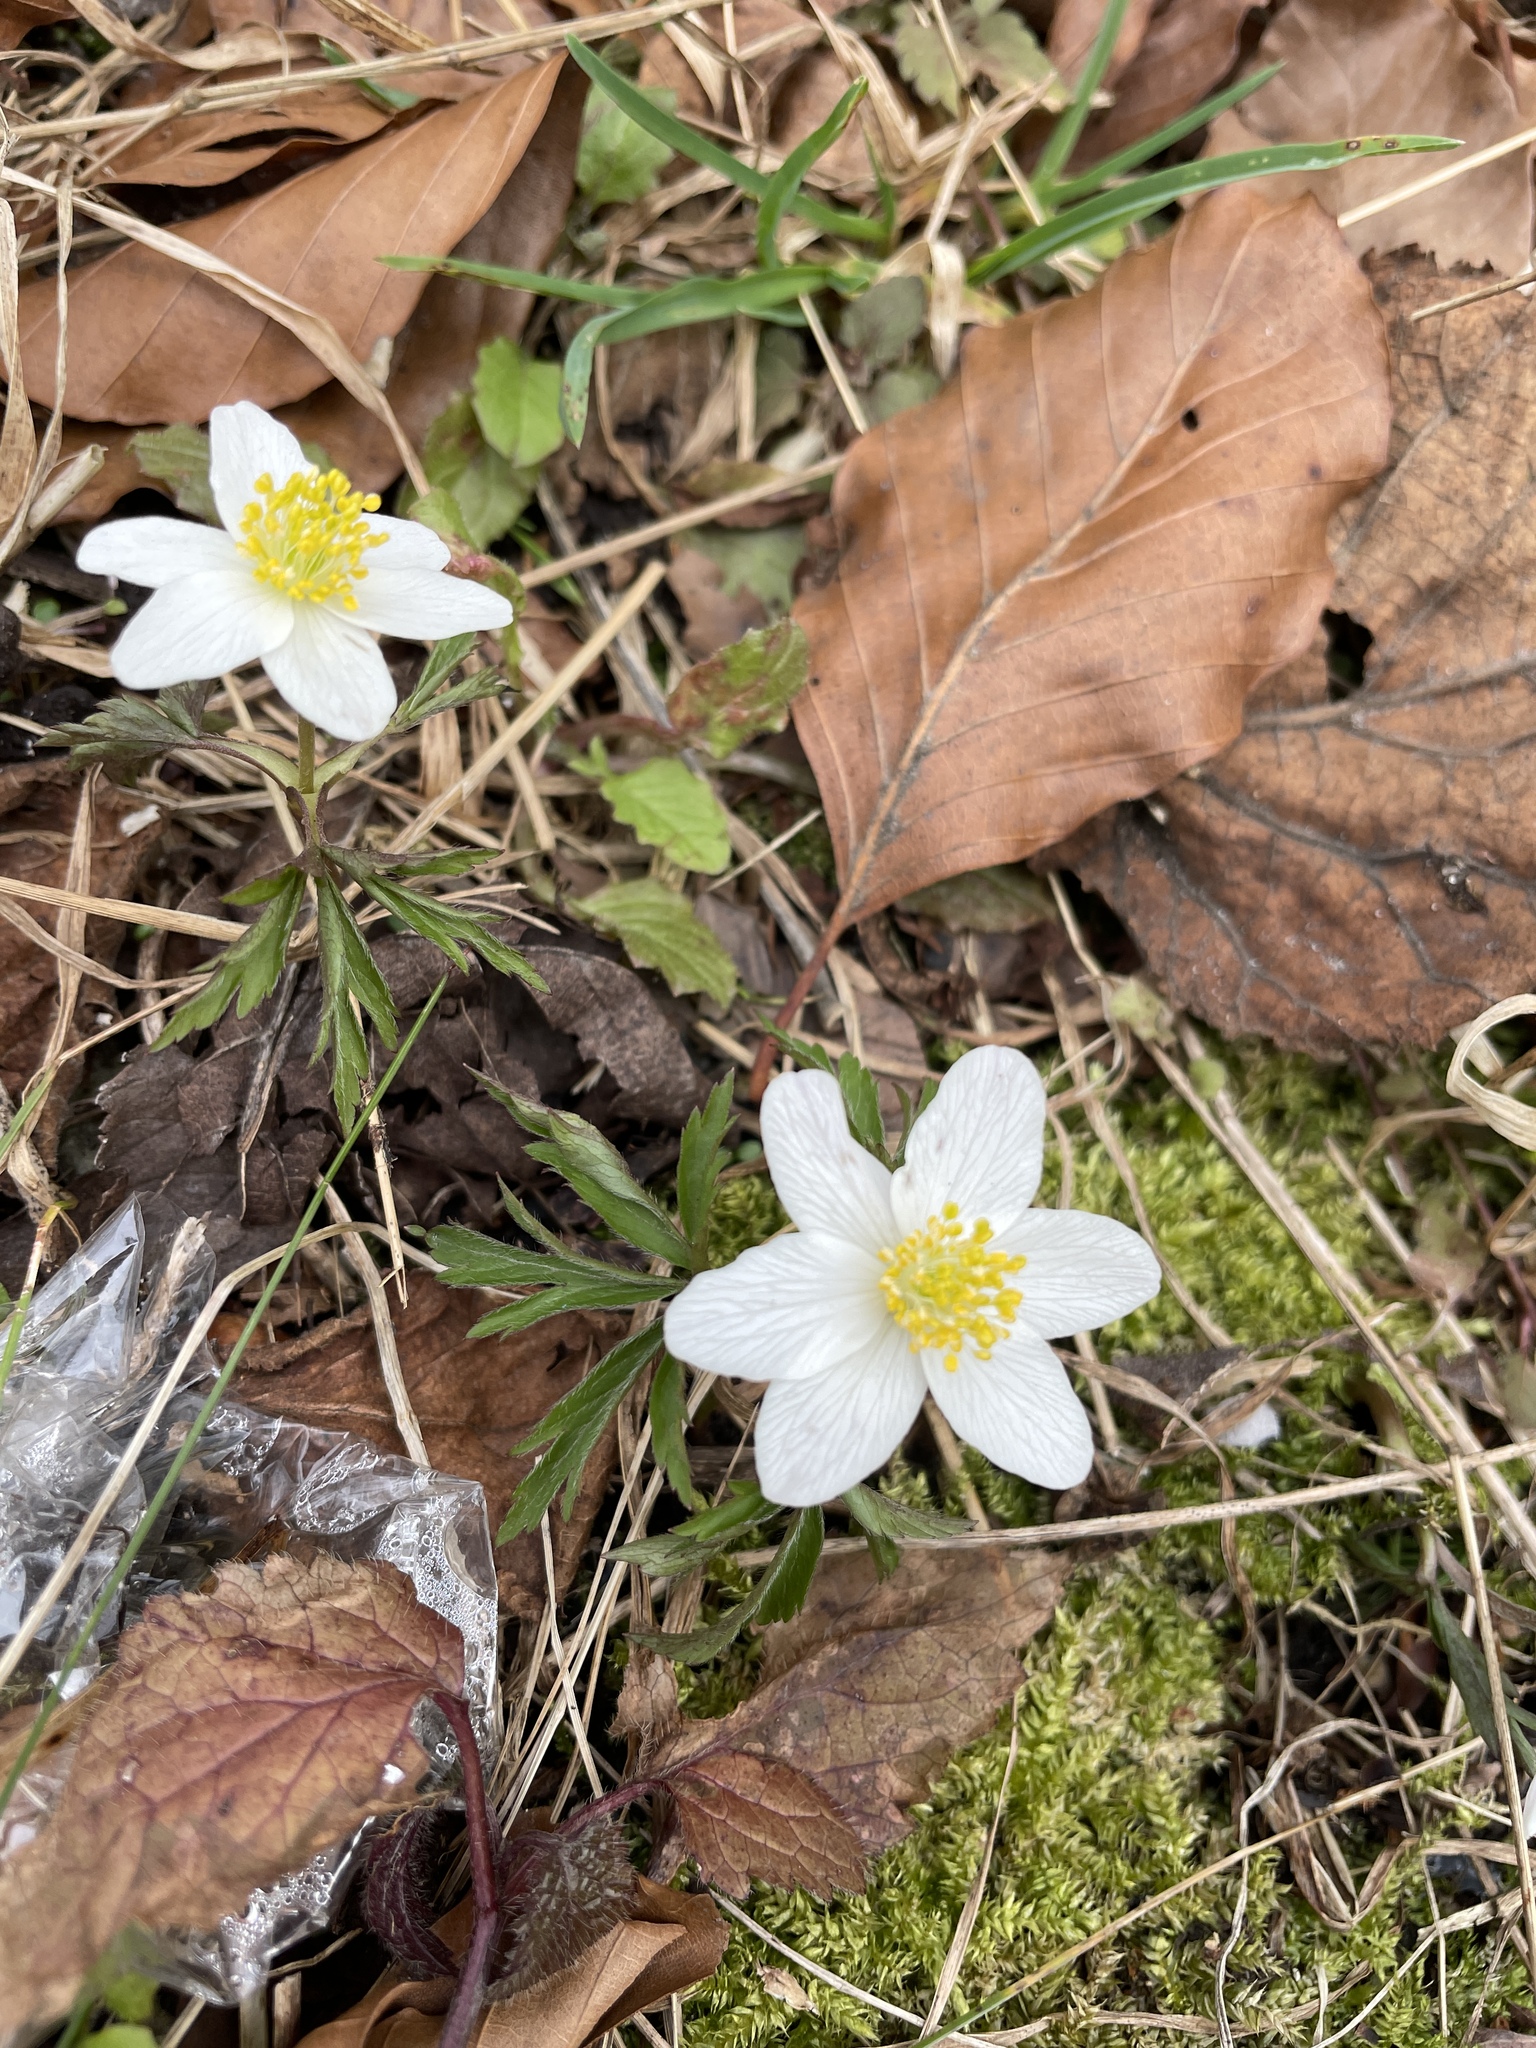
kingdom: Plantae
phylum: Tracheophyta
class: Magnoliopsida
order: Ranunculales
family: Ranunculaceae
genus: Anemone
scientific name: Anemone nemorosa
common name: Wood anemone
